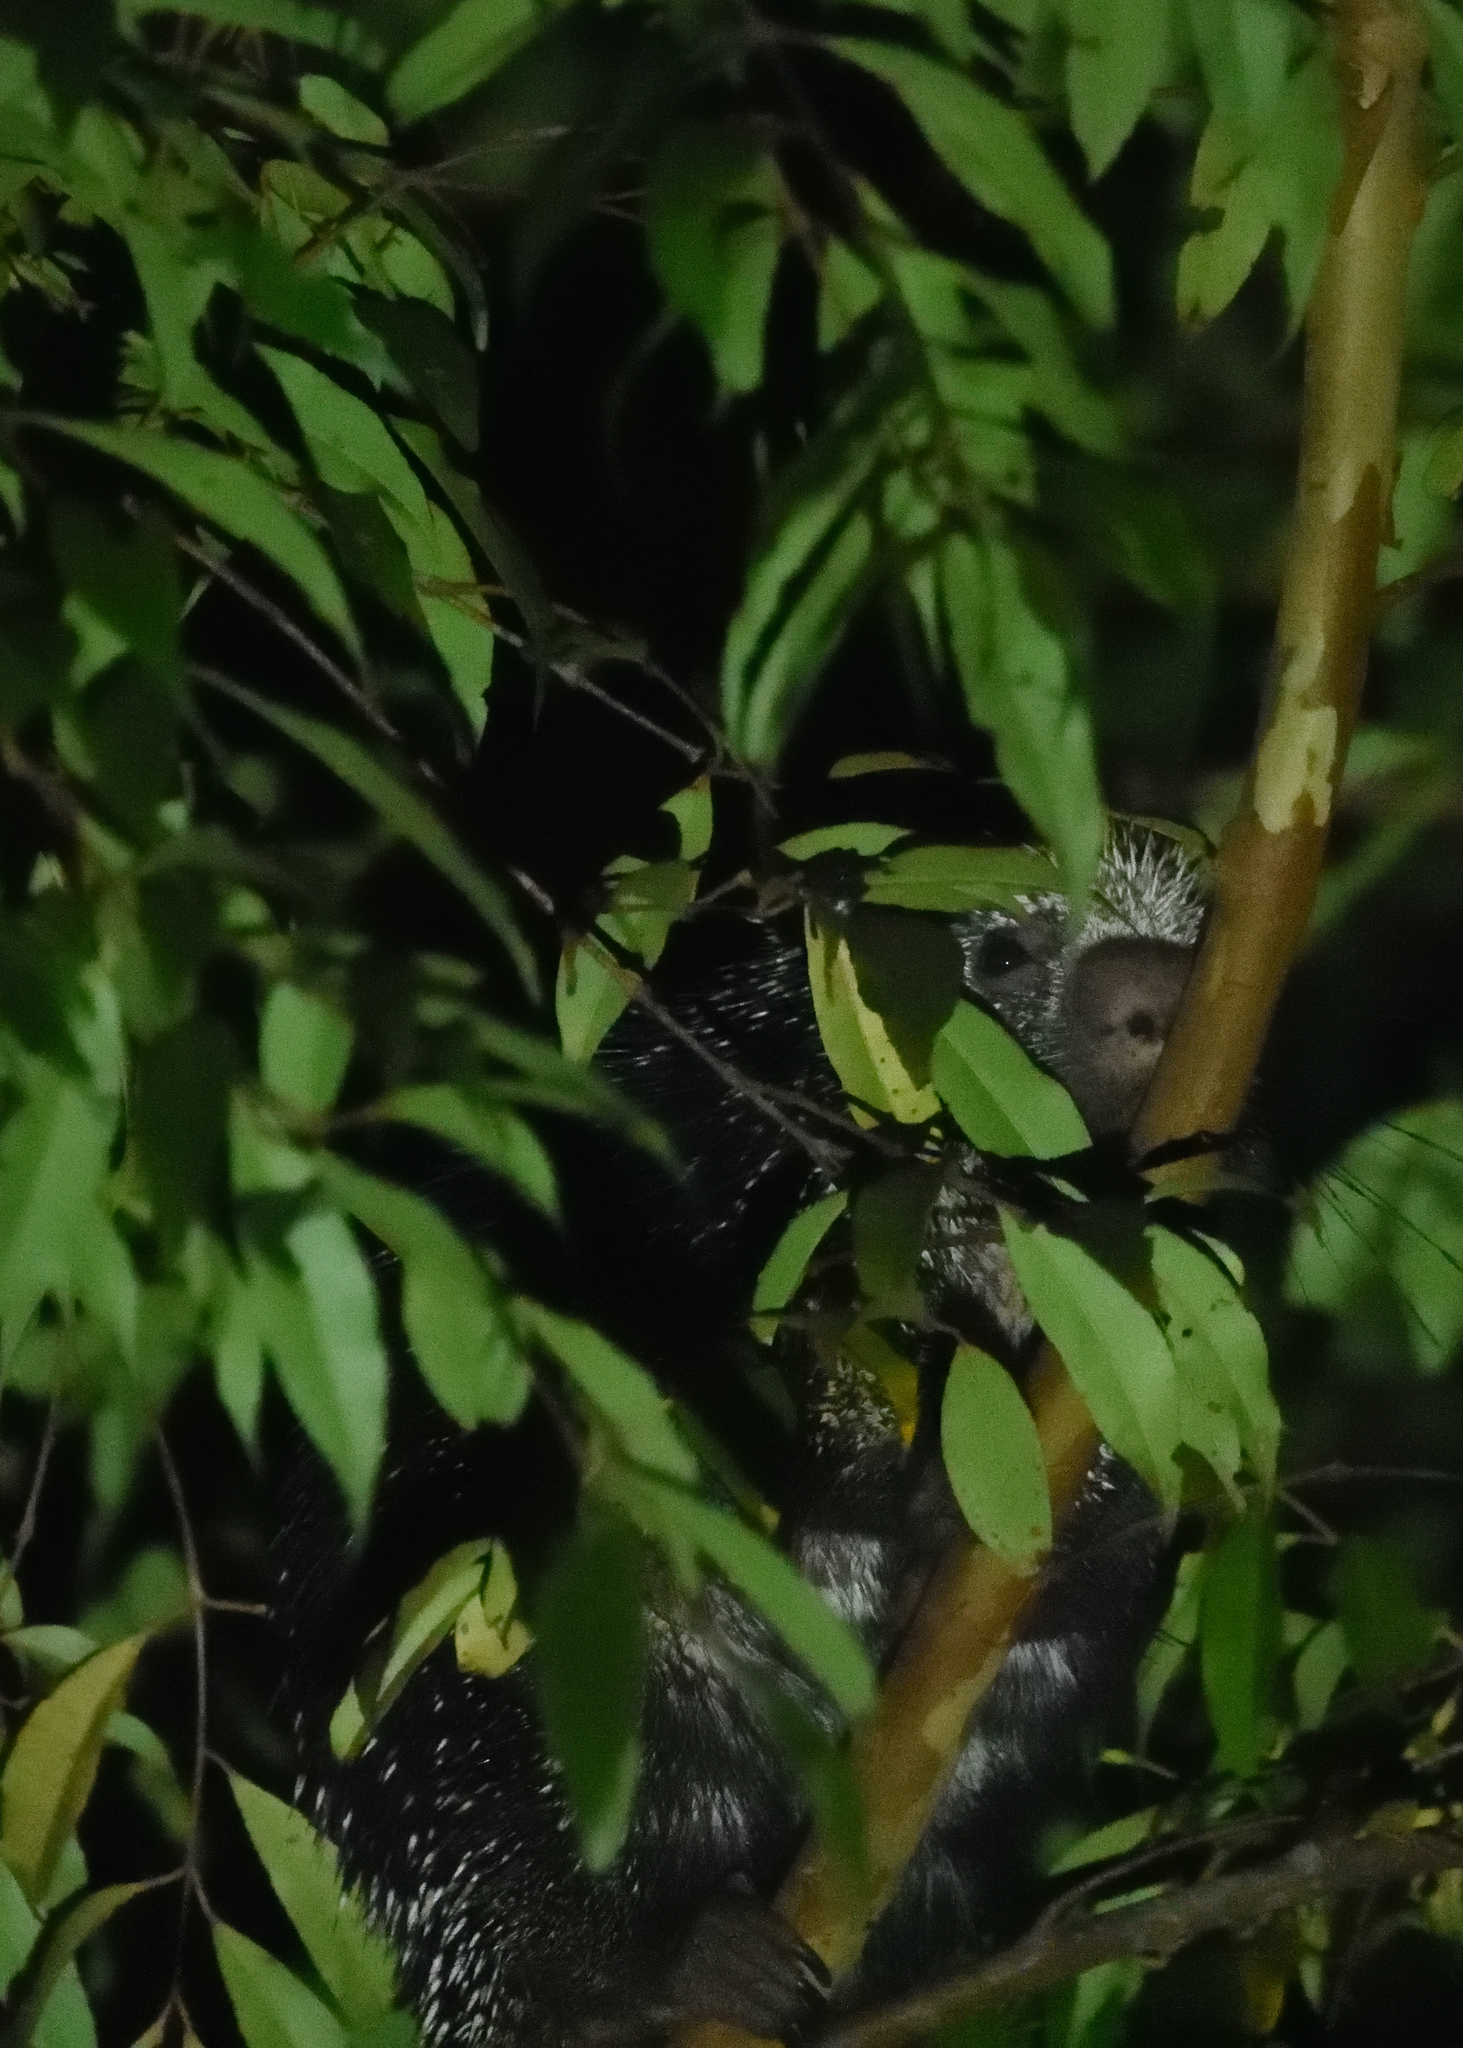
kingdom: Animalia
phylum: Chordata
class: Mammalia
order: Rodentia
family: Erethizontidae
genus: Coendou
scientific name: Coendou longicaudatus
